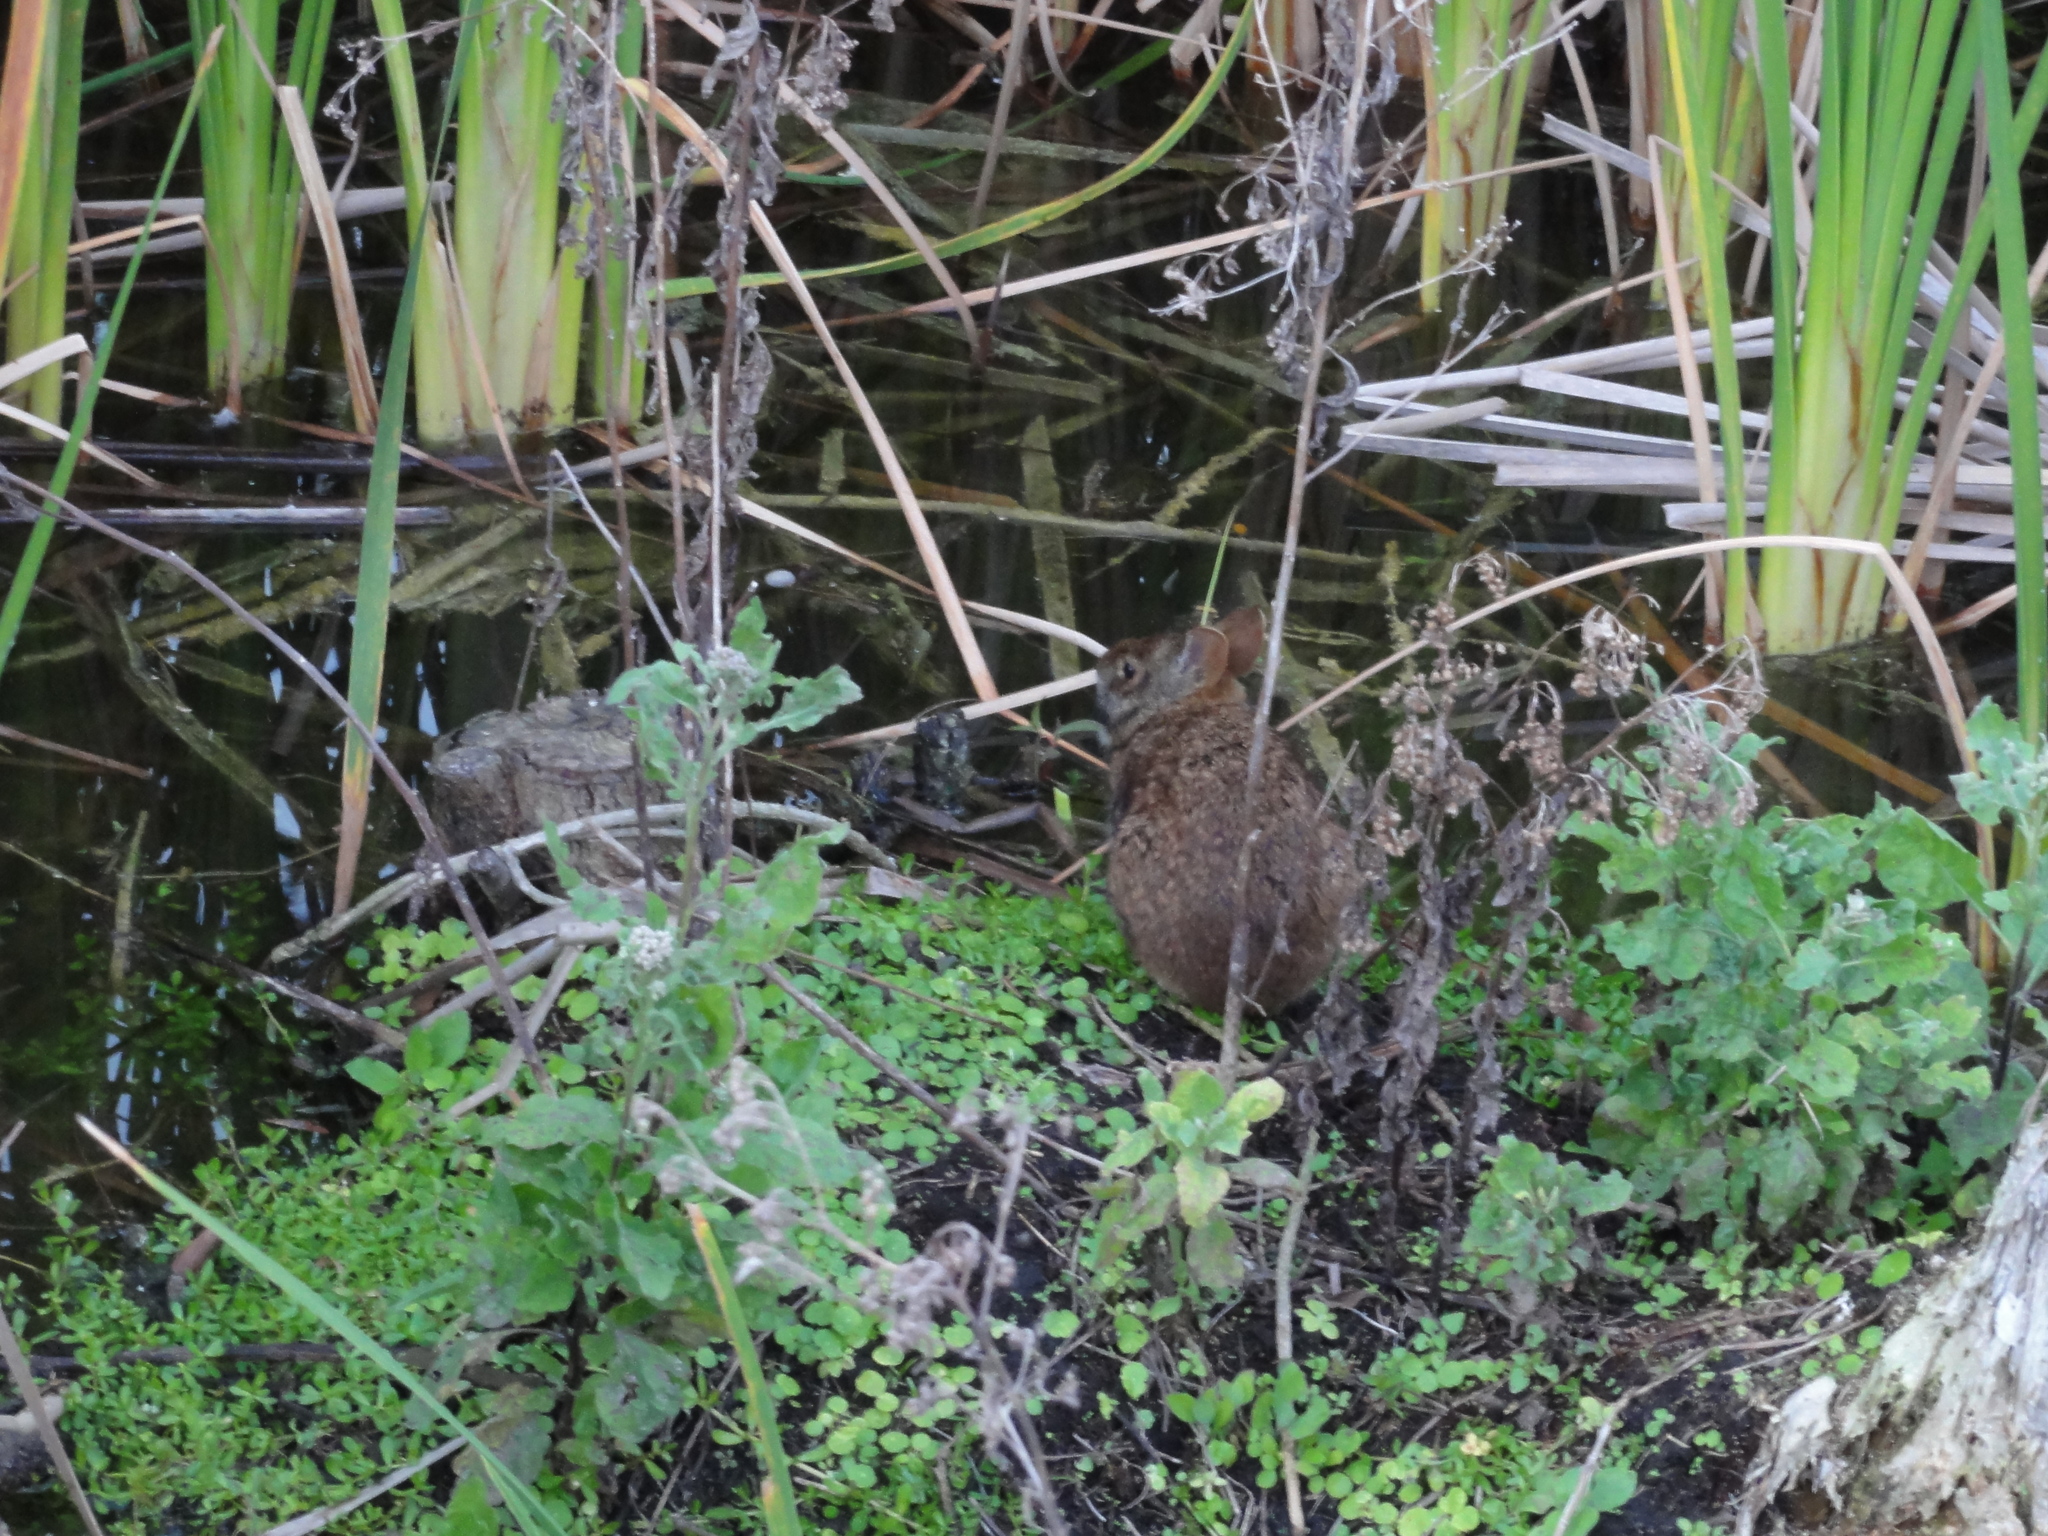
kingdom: Animalia
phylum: Chordata
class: Mammalia
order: Lagomorpha
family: Leporidae
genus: Sylvilagus
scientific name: Sylvilagus palustris
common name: Marsh rabbit
